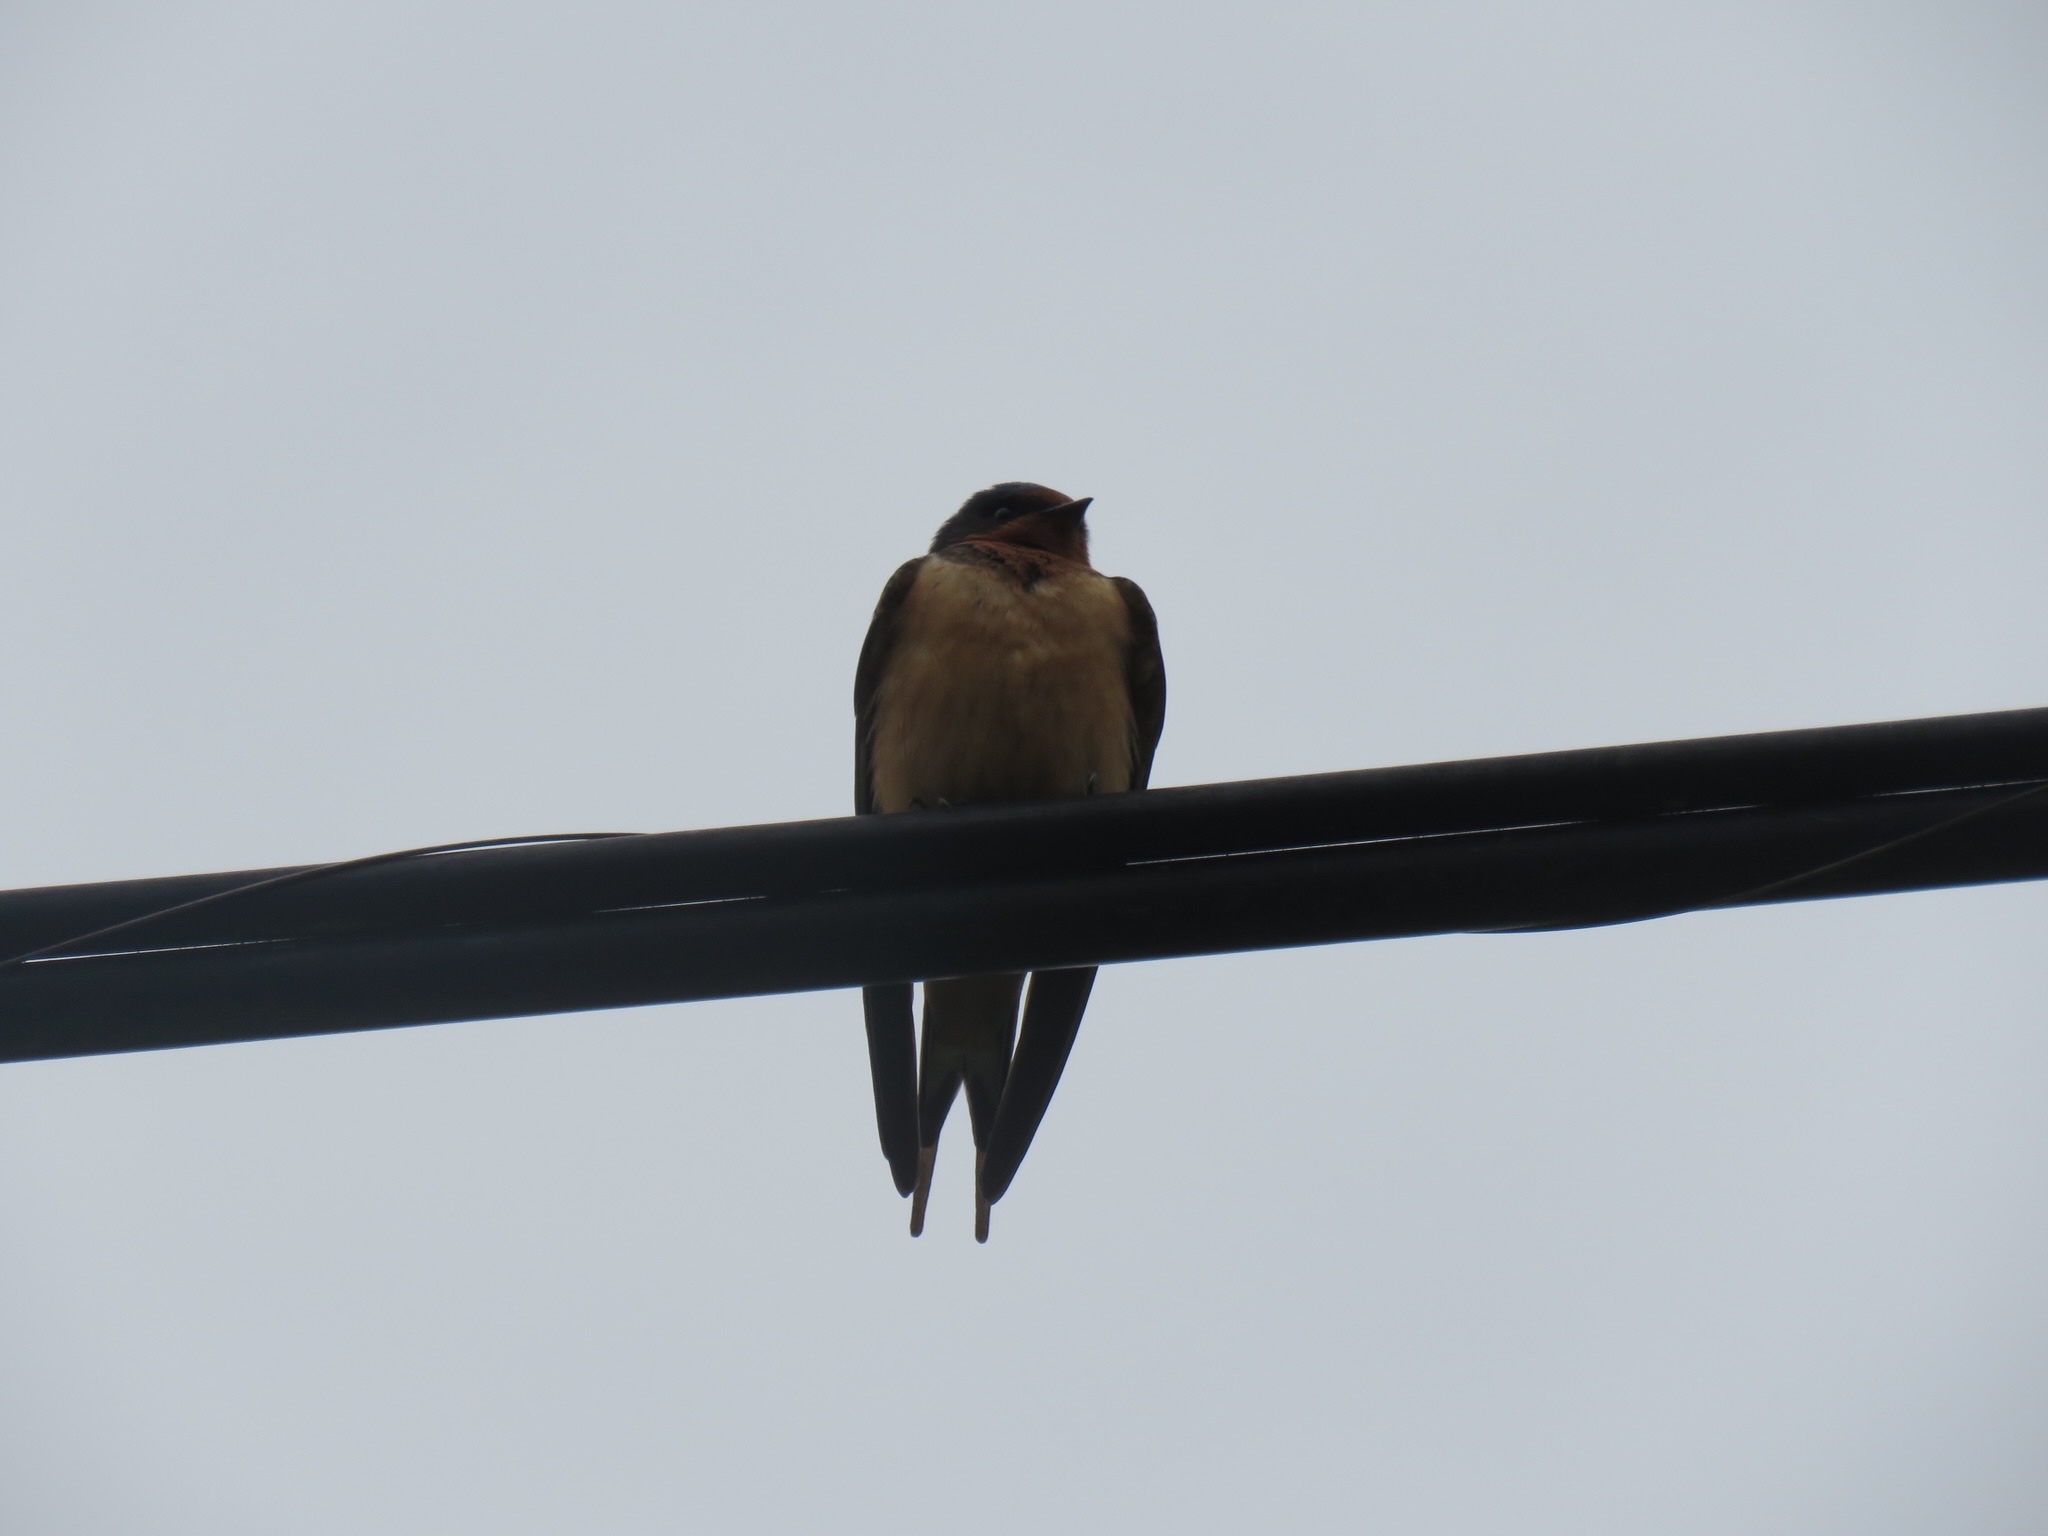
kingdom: Animalia
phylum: Chordata
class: Aves
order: Passeriformes
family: Hirundinidae
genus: Hirundo
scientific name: Hirundo rustica
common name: Barn swallow
